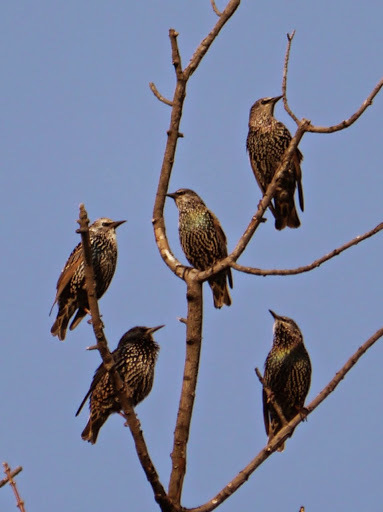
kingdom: Animalia
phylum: Chordata
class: Aves
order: Passeriformes
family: Sturnidae
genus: Sturnus
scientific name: Sturnus vulgaris
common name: Common starling
